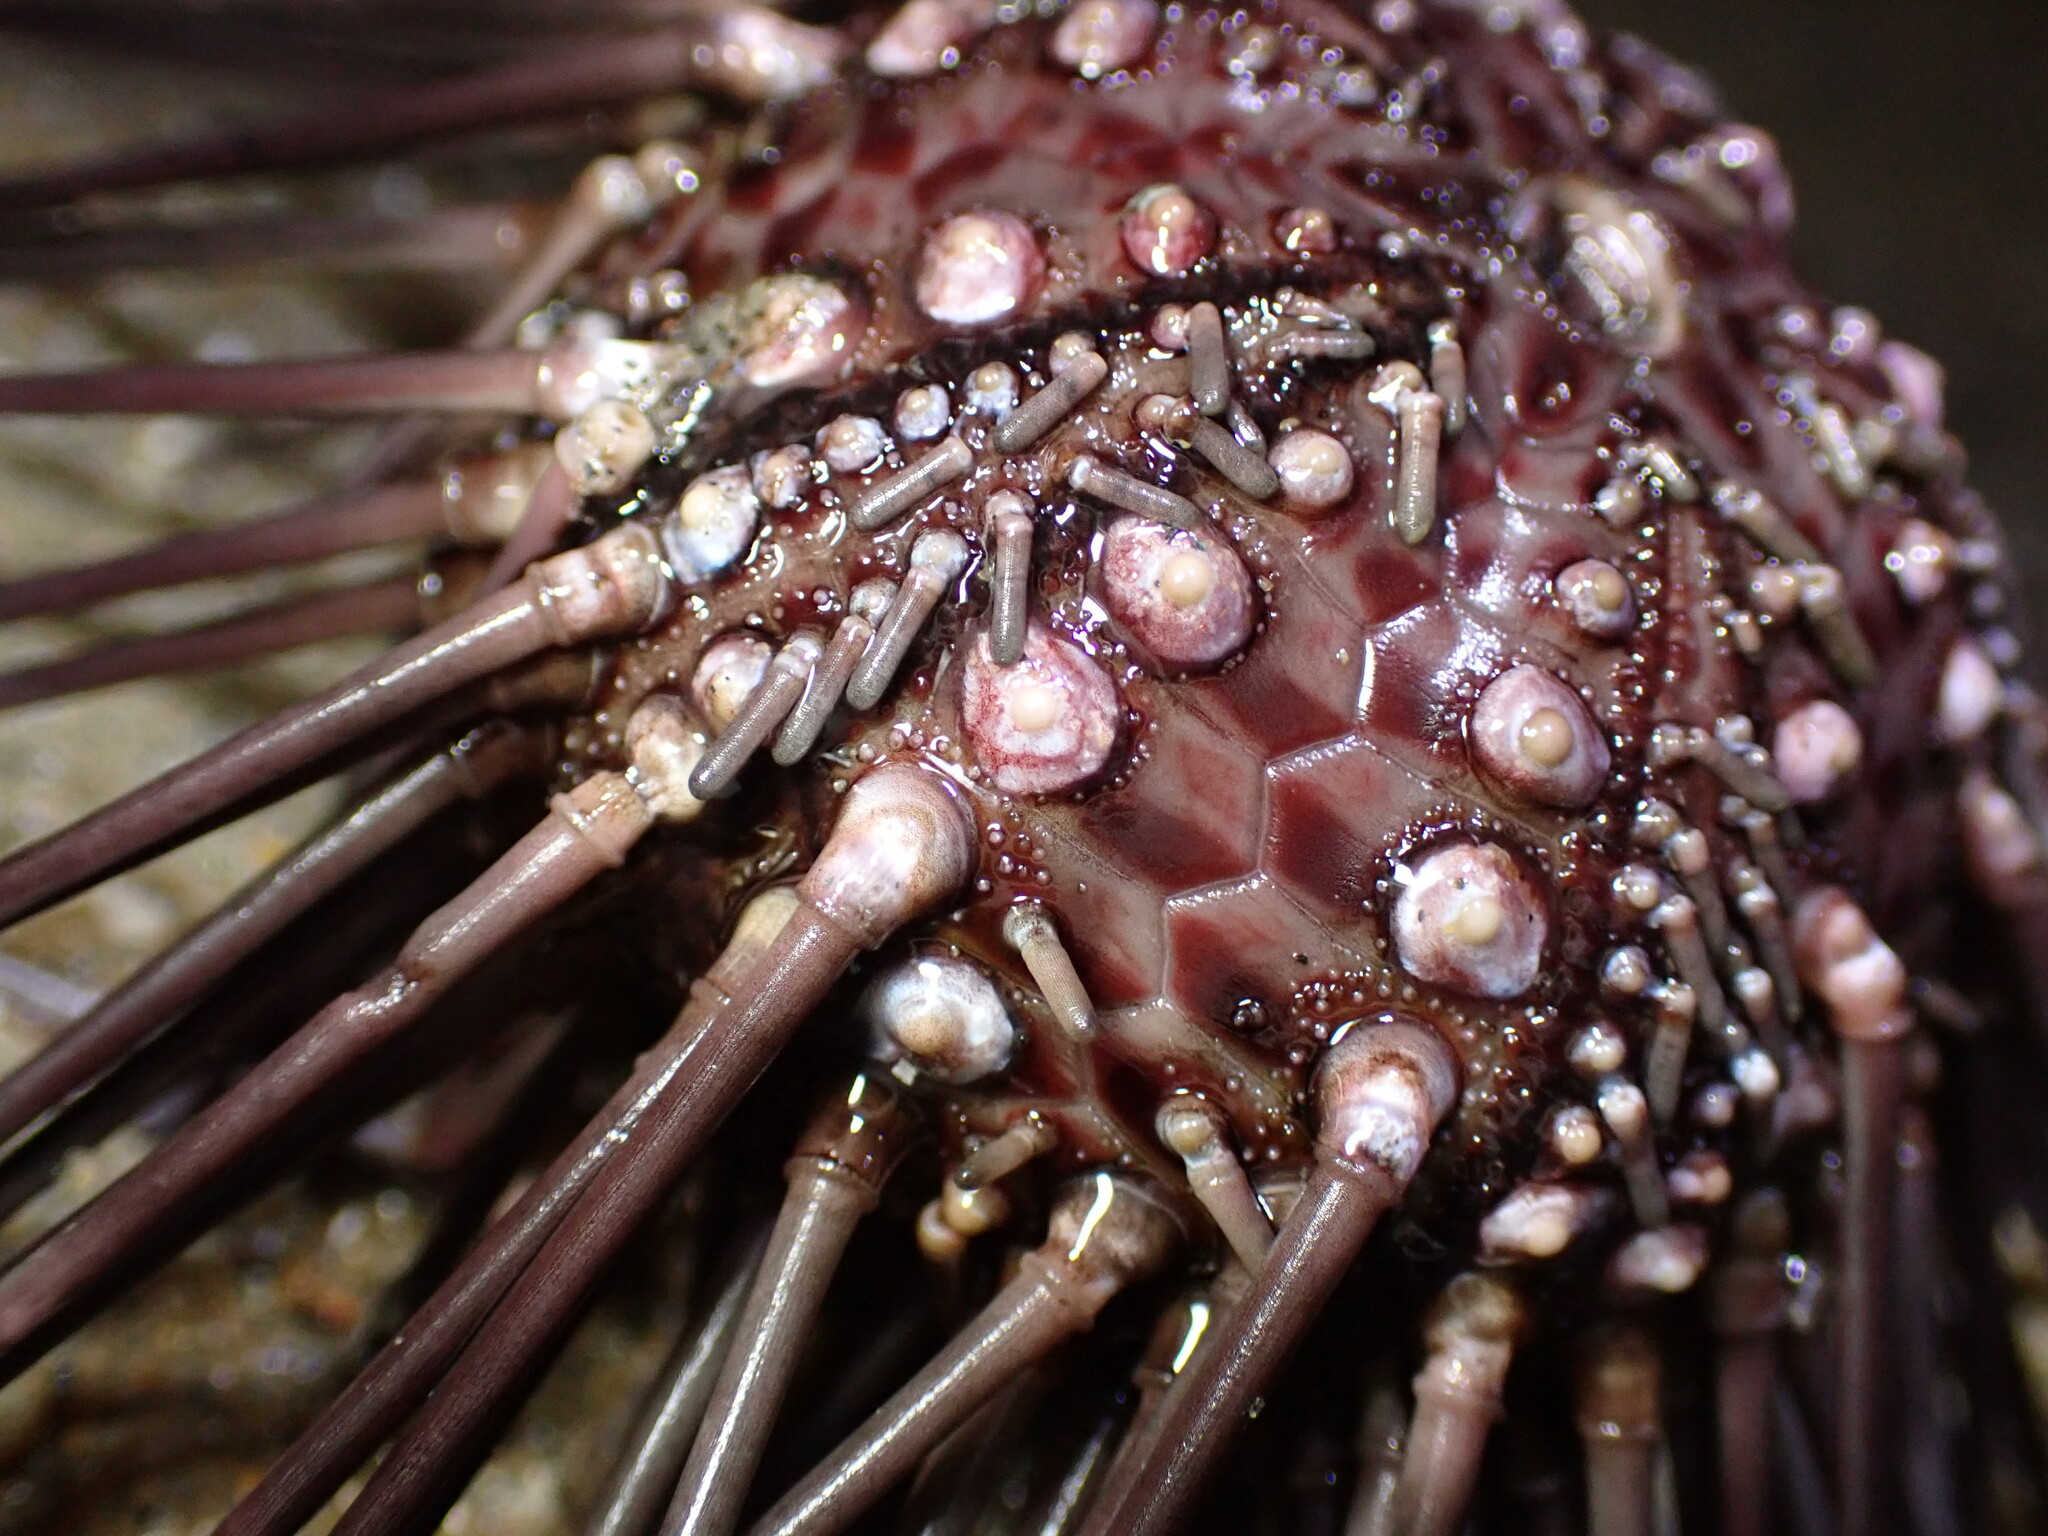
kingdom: Animalia
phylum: Echinodermata
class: Echinoidea
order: Arbacioida
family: Arbaciidae
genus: Arbacia
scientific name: Arbacia stellata
